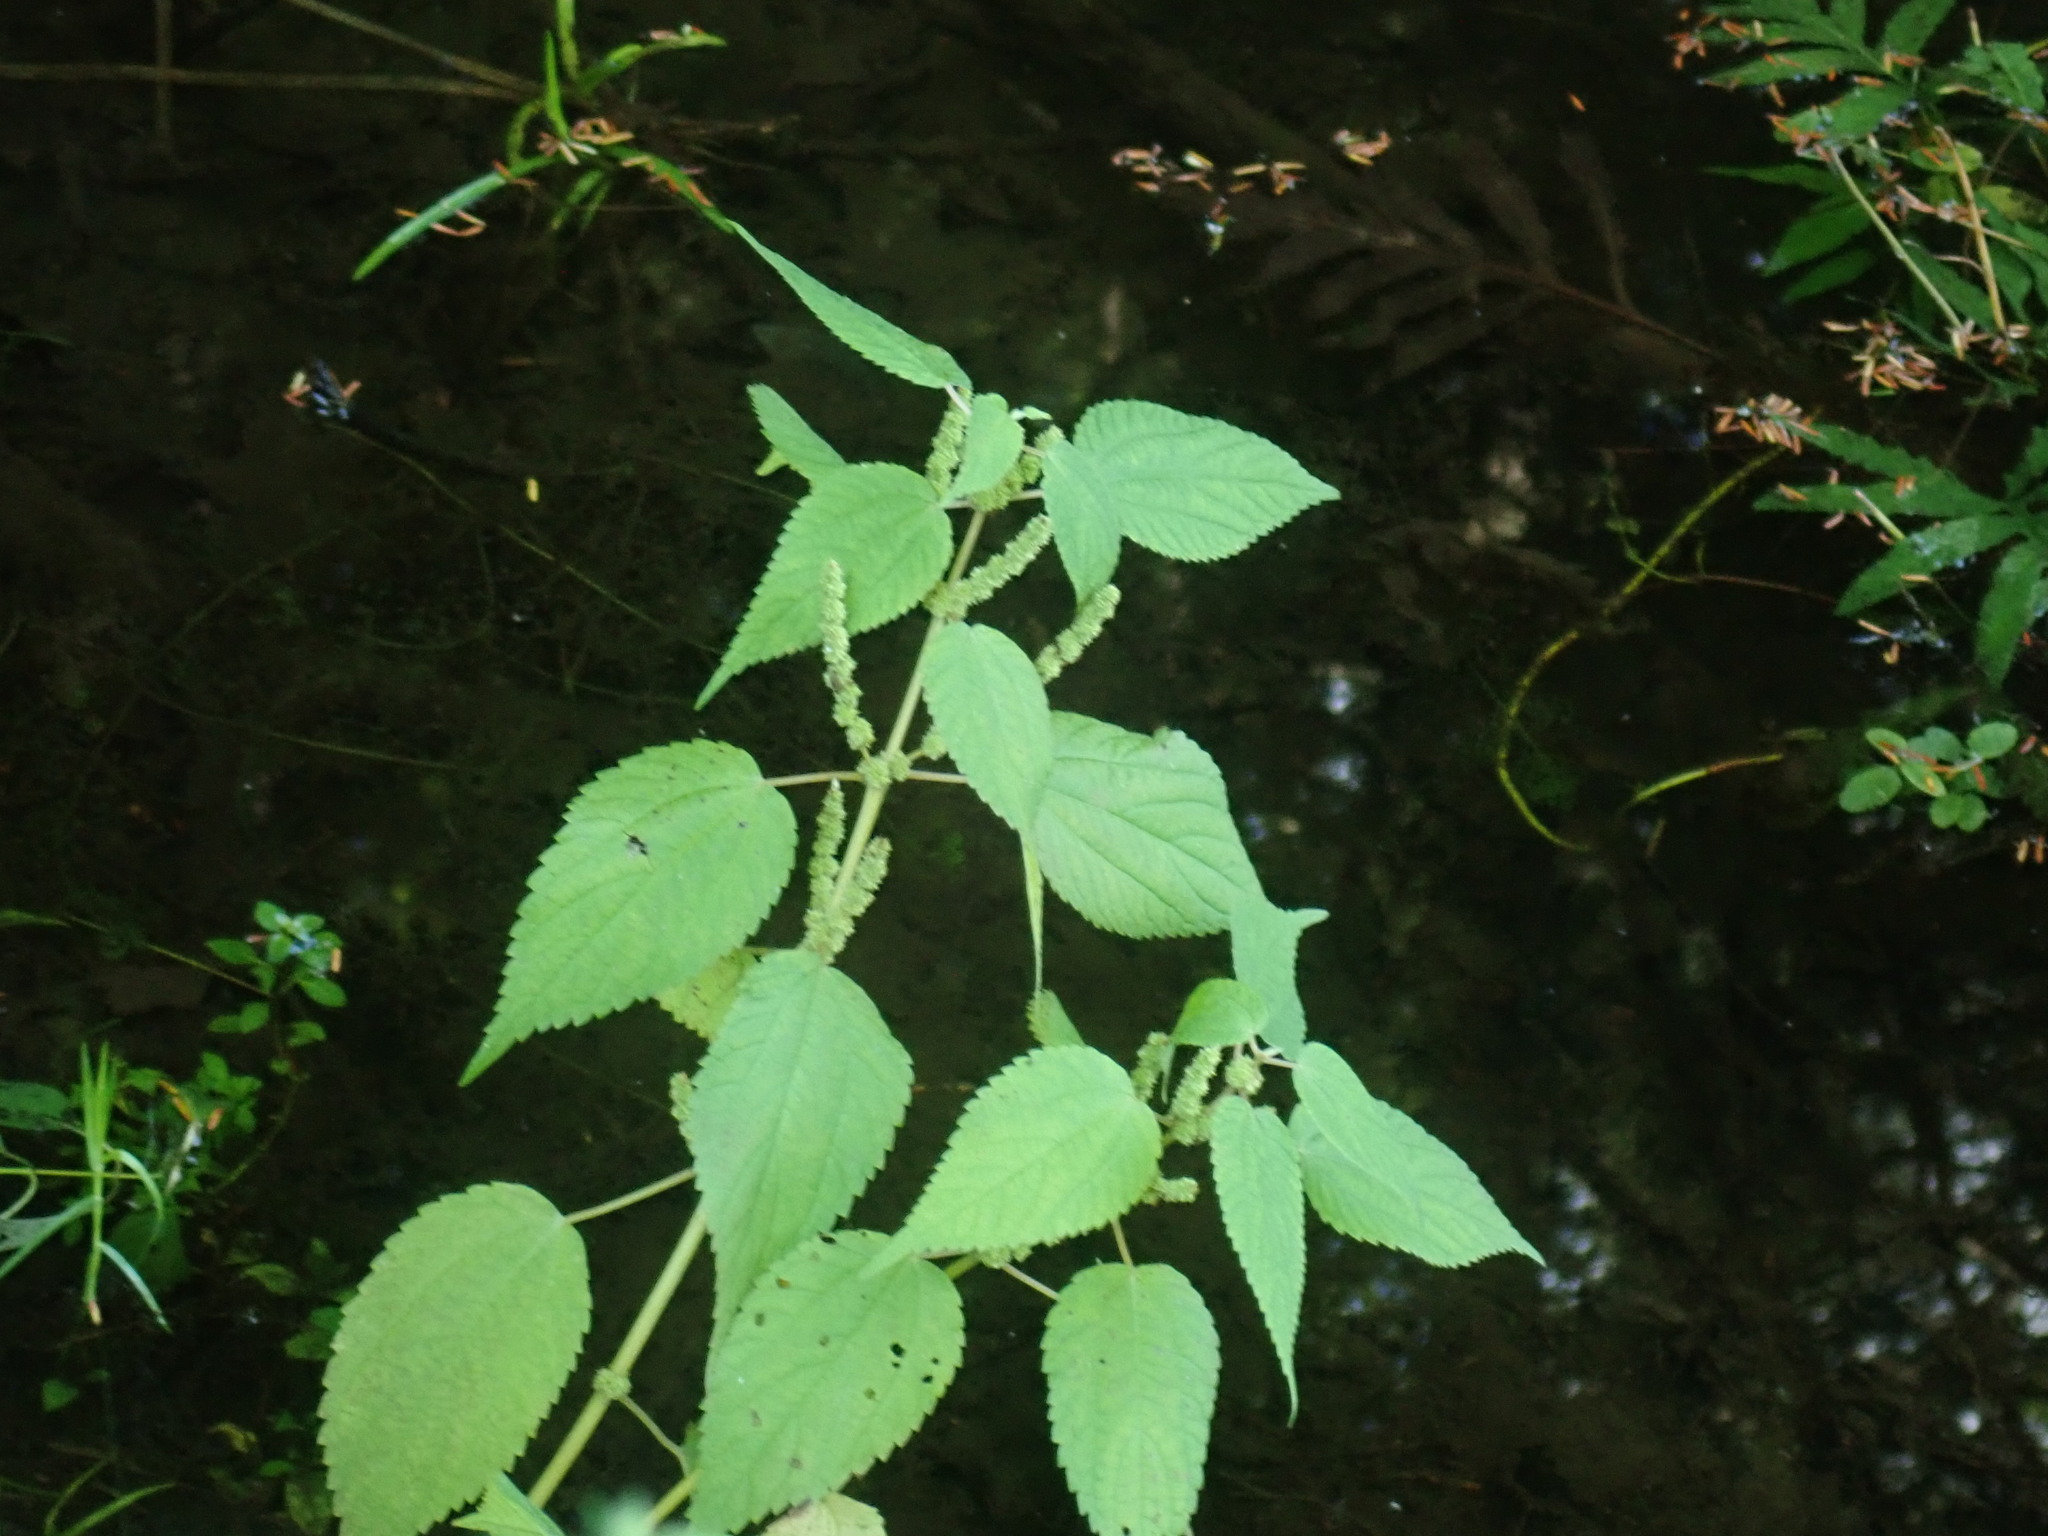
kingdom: Plantae
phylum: Tracheophyta
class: Magnoliopsida
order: Rosales
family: Urticaceae
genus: Boehmeria
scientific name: Boehmeria cylindrica
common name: Bog-hemp
